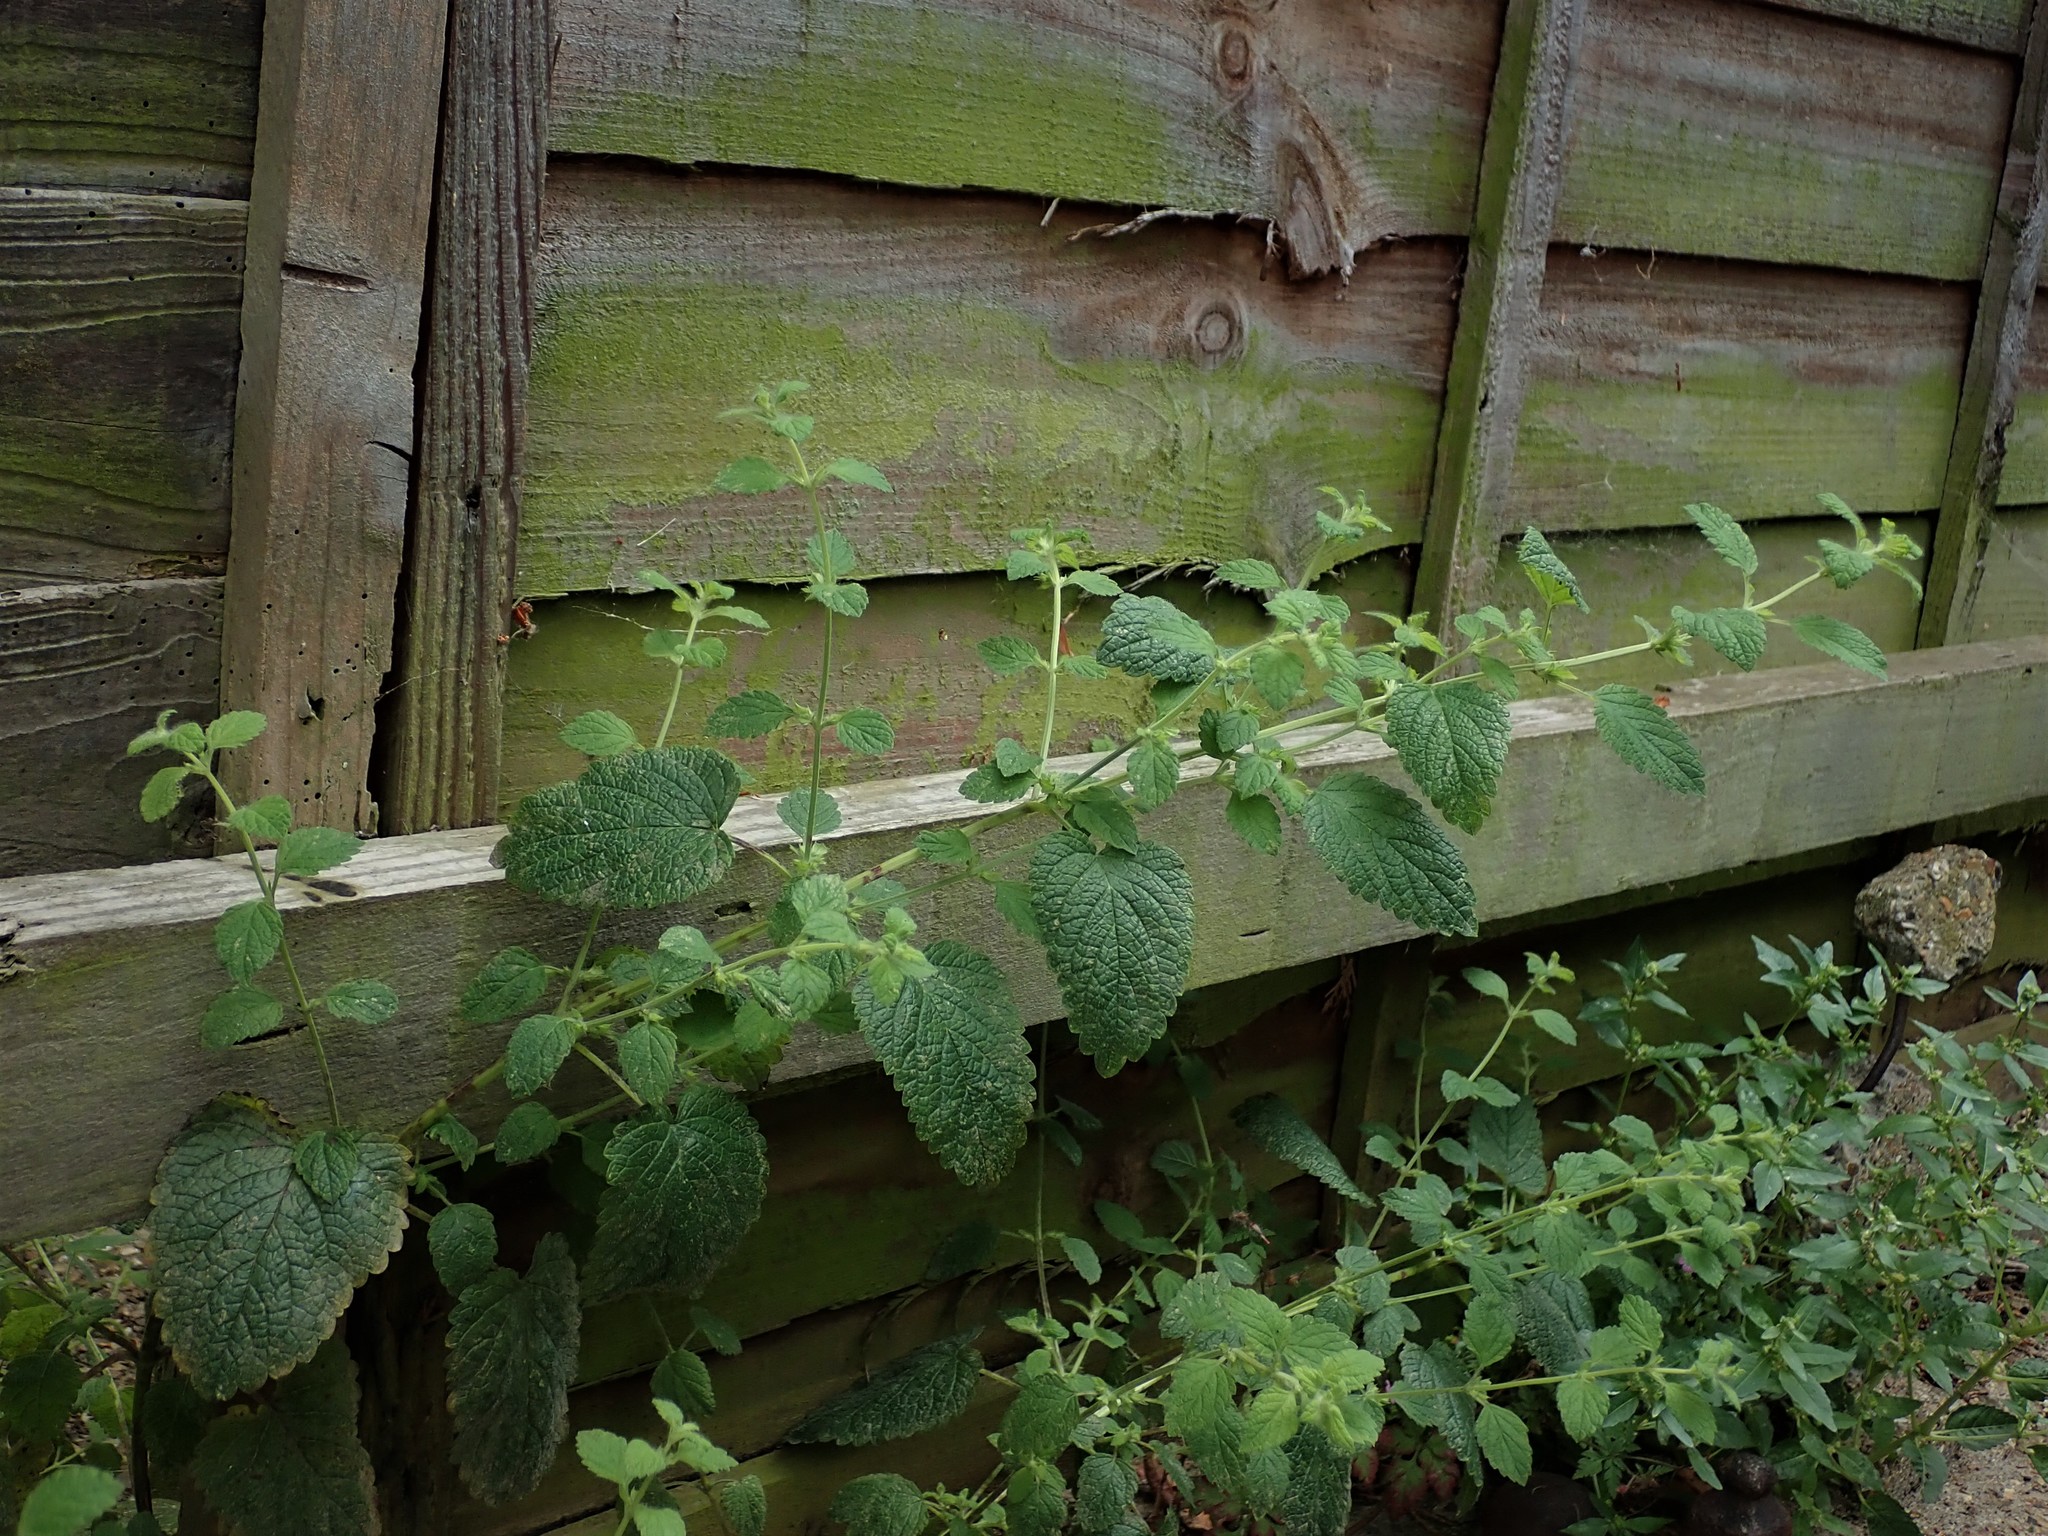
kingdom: Plantae
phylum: Tracheophyta
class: Magnoliopsida
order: Lamiales
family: Lamiaceae
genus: Melissa
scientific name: Melissa officinalis
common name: Balm
